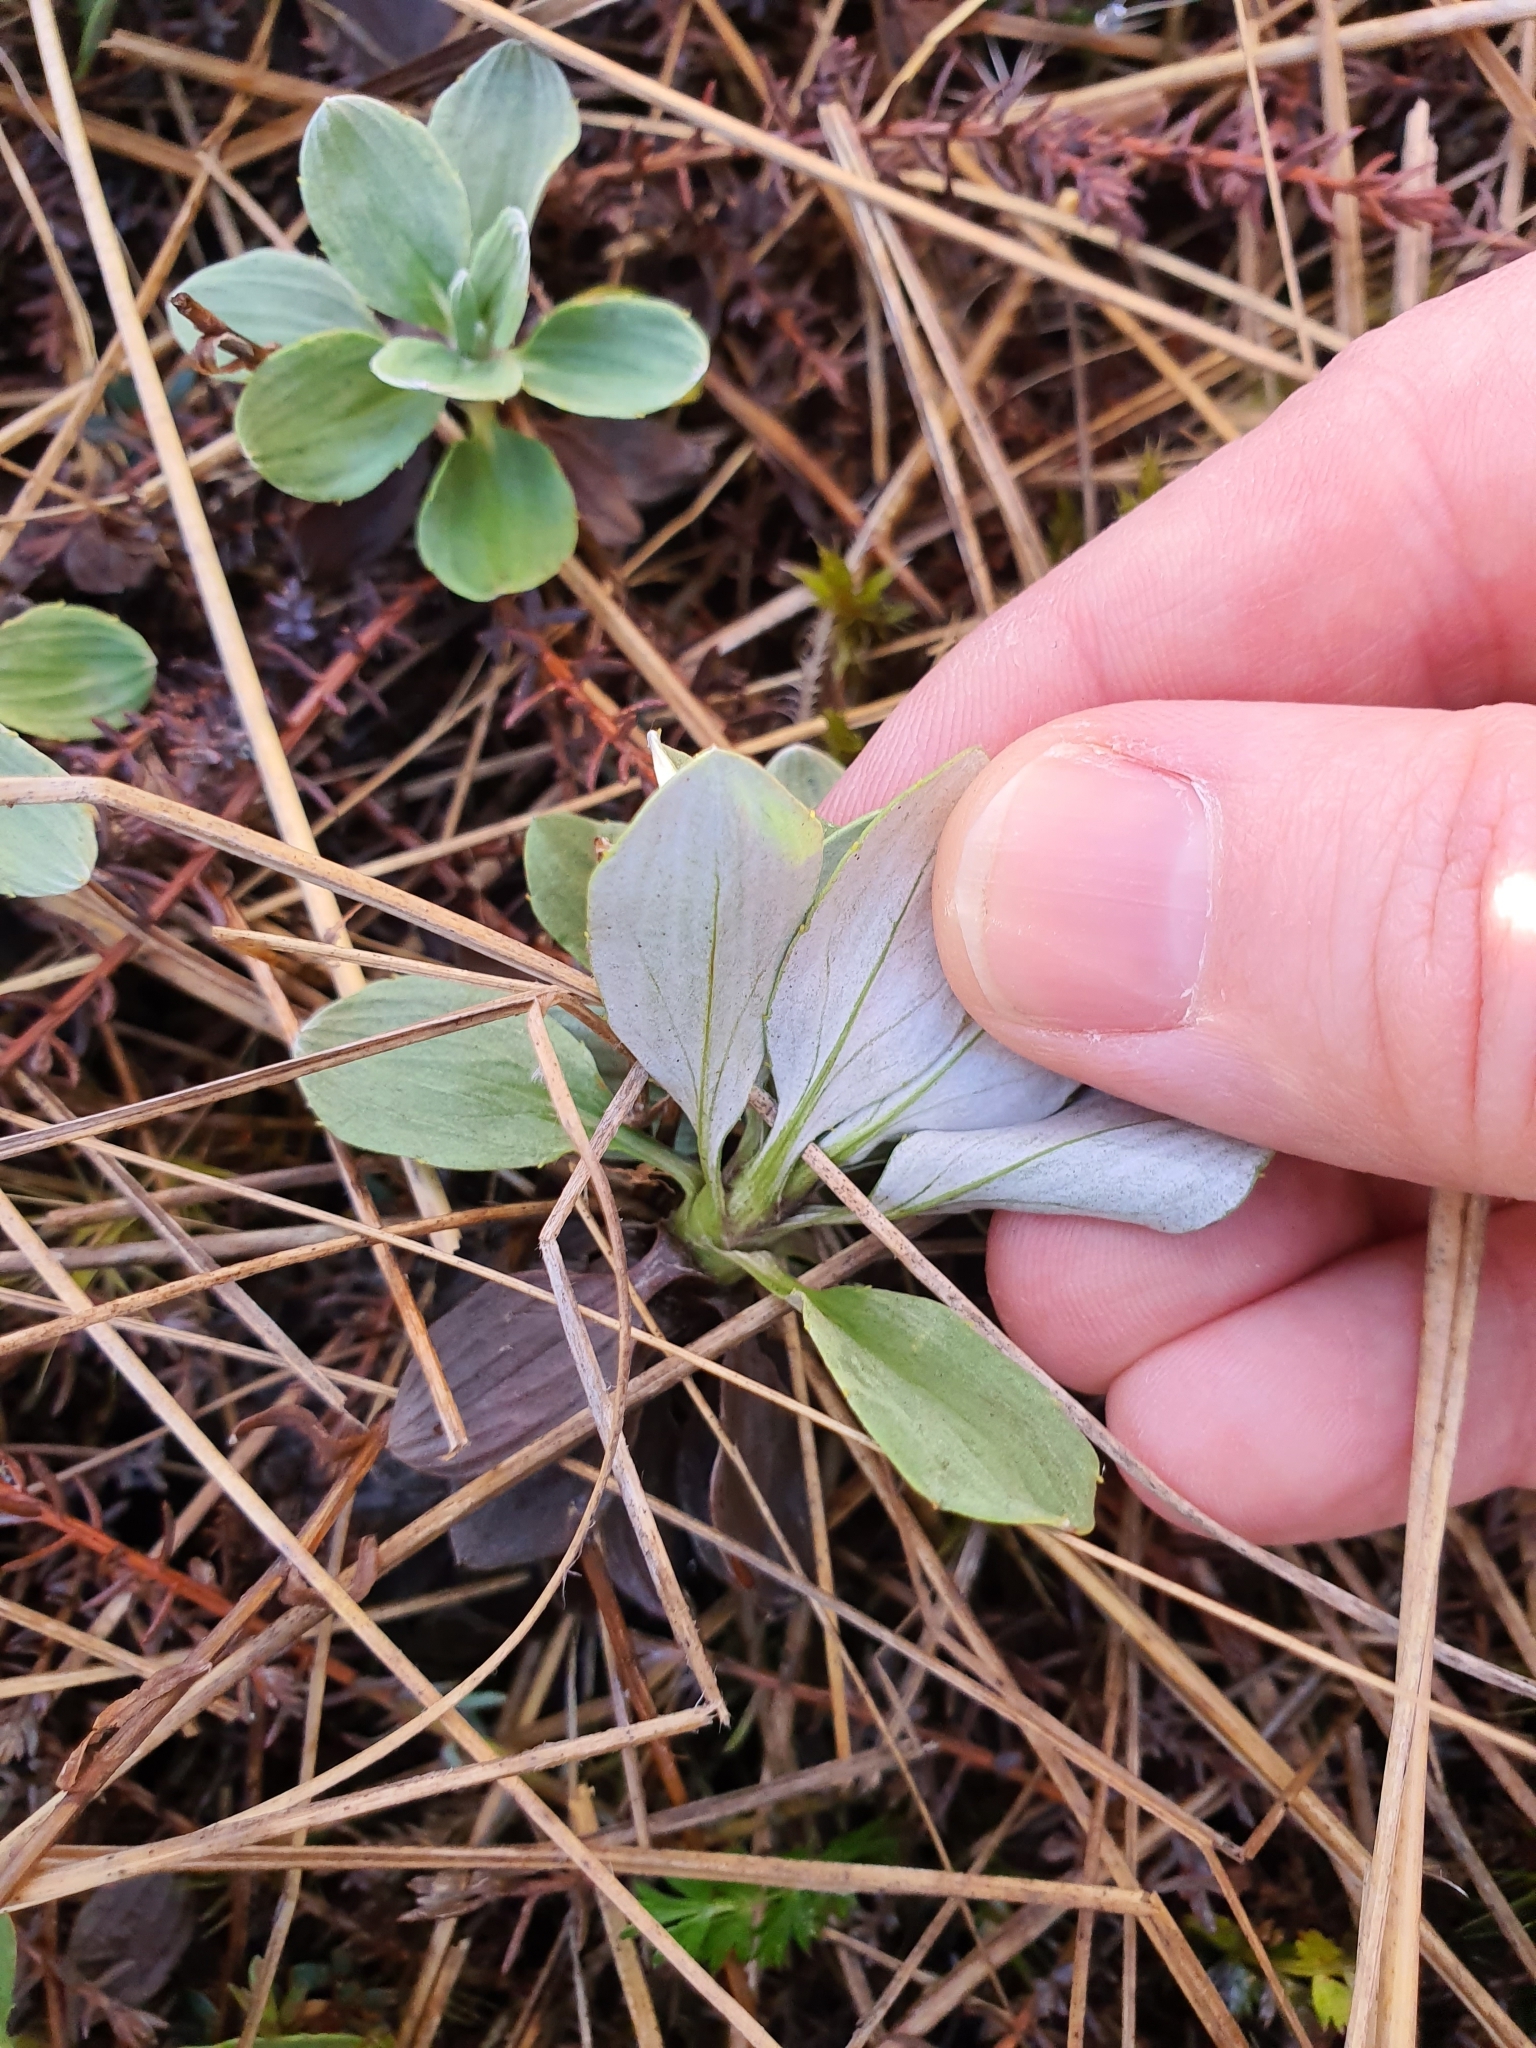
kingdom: Plantae
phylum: Tracheophyta
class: Magnoliopsida
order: Asterales
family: Asteraceae
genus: Celmisia
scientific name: Celmisia discolor
